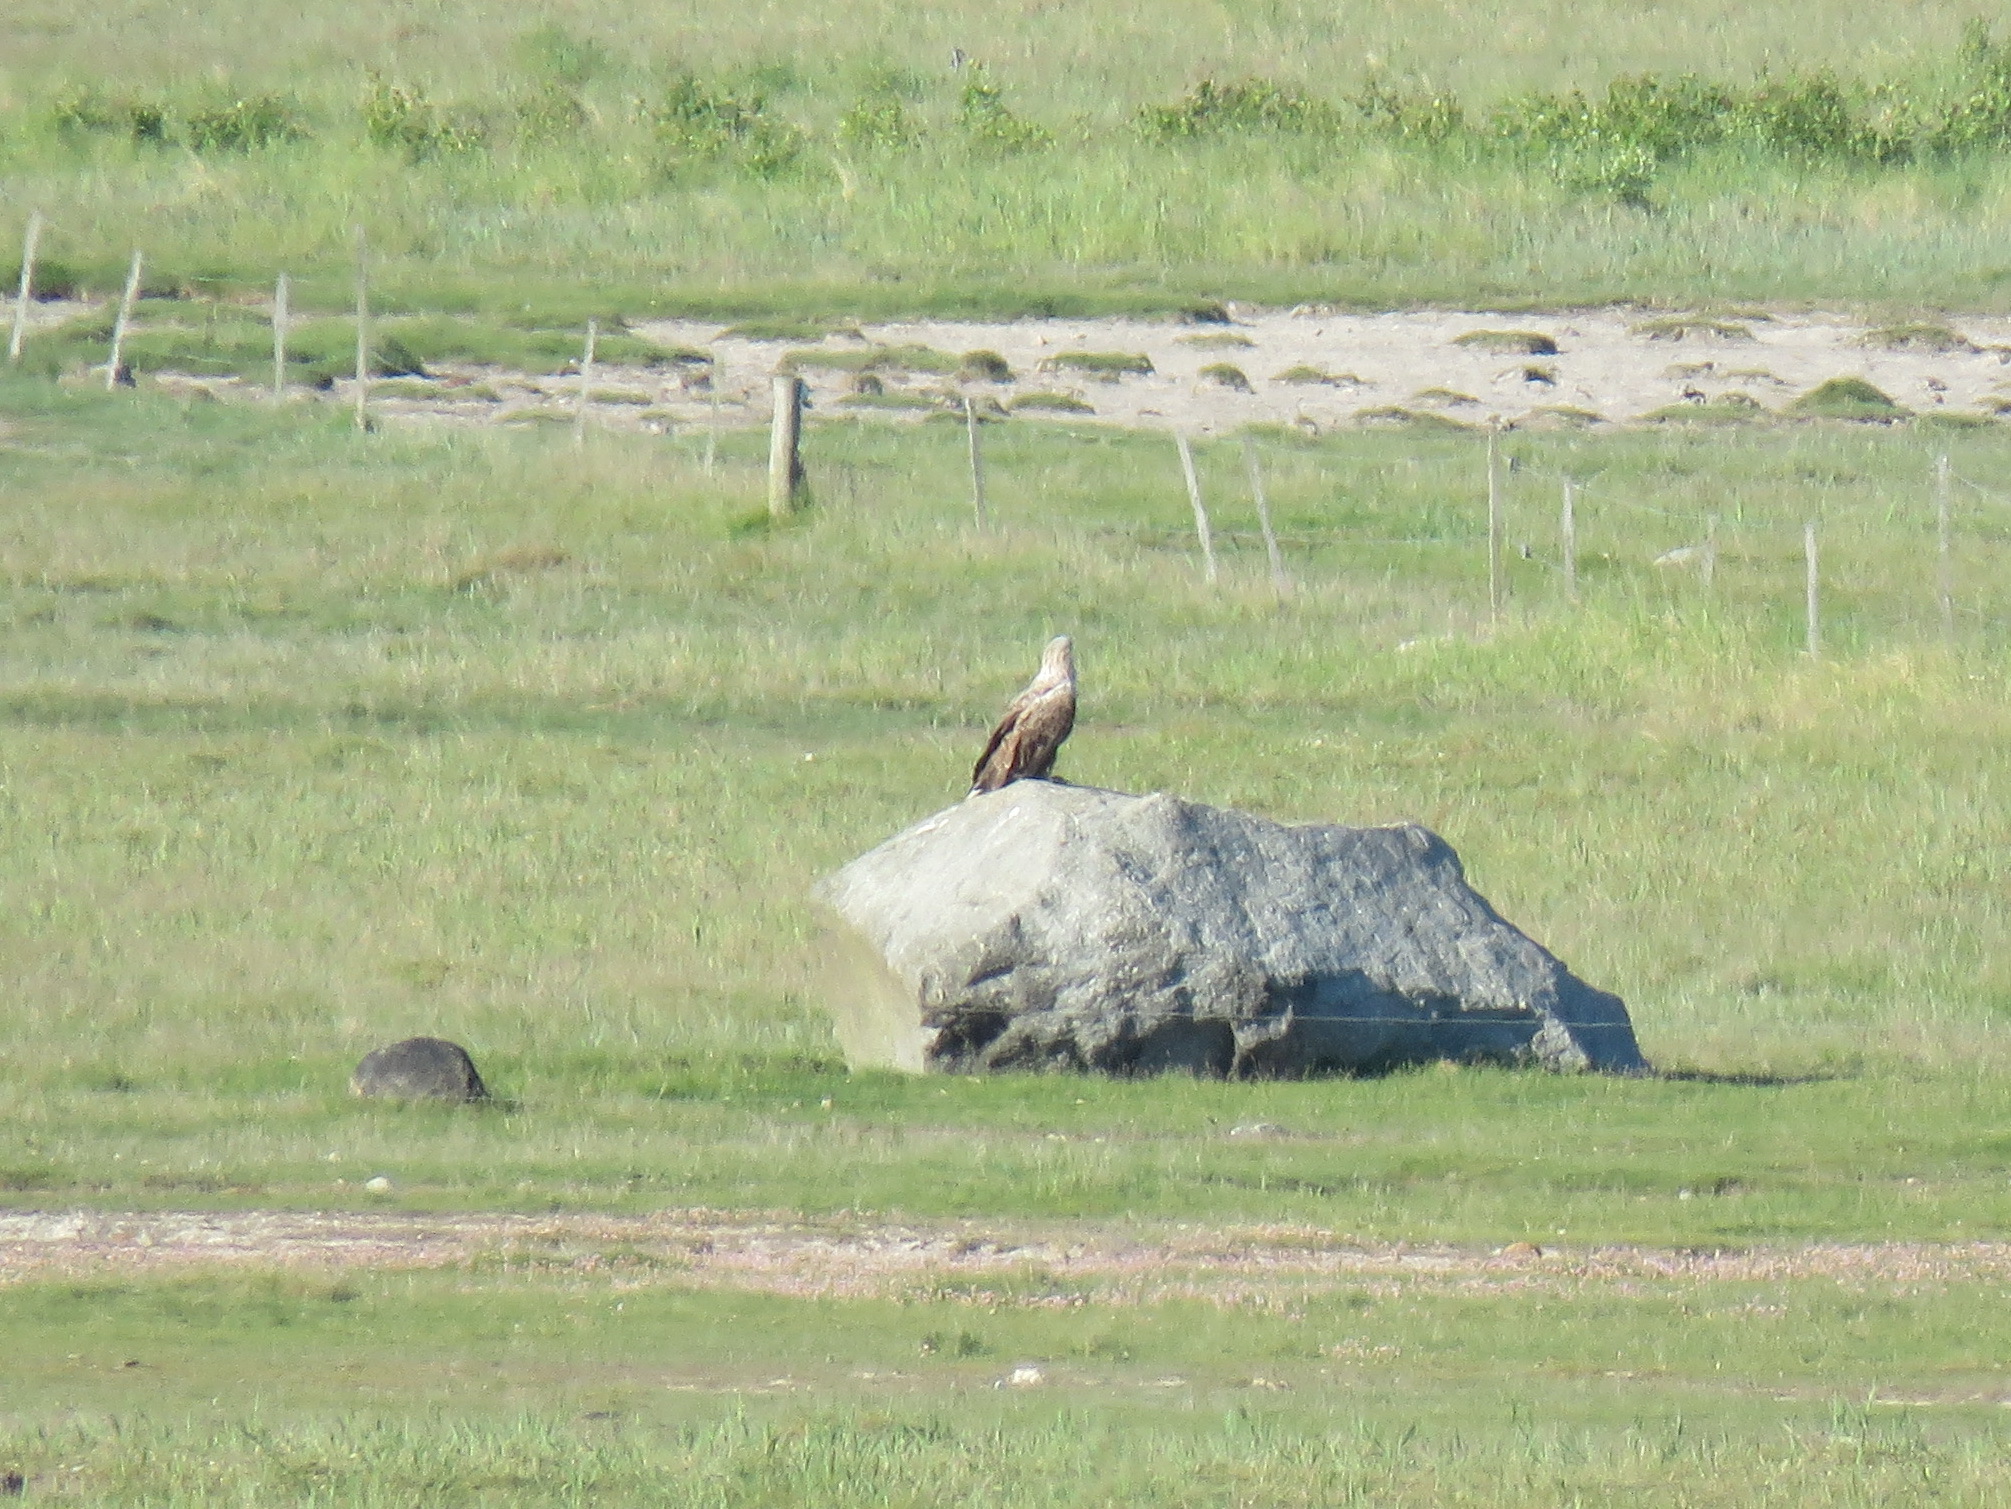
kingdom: Animalia
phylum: Chordata
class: Aves
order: Accipitriformes
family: Accipitridae
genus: Haliaeetus
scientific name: Haliaeetus albicilla
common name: White-tailed eagle
